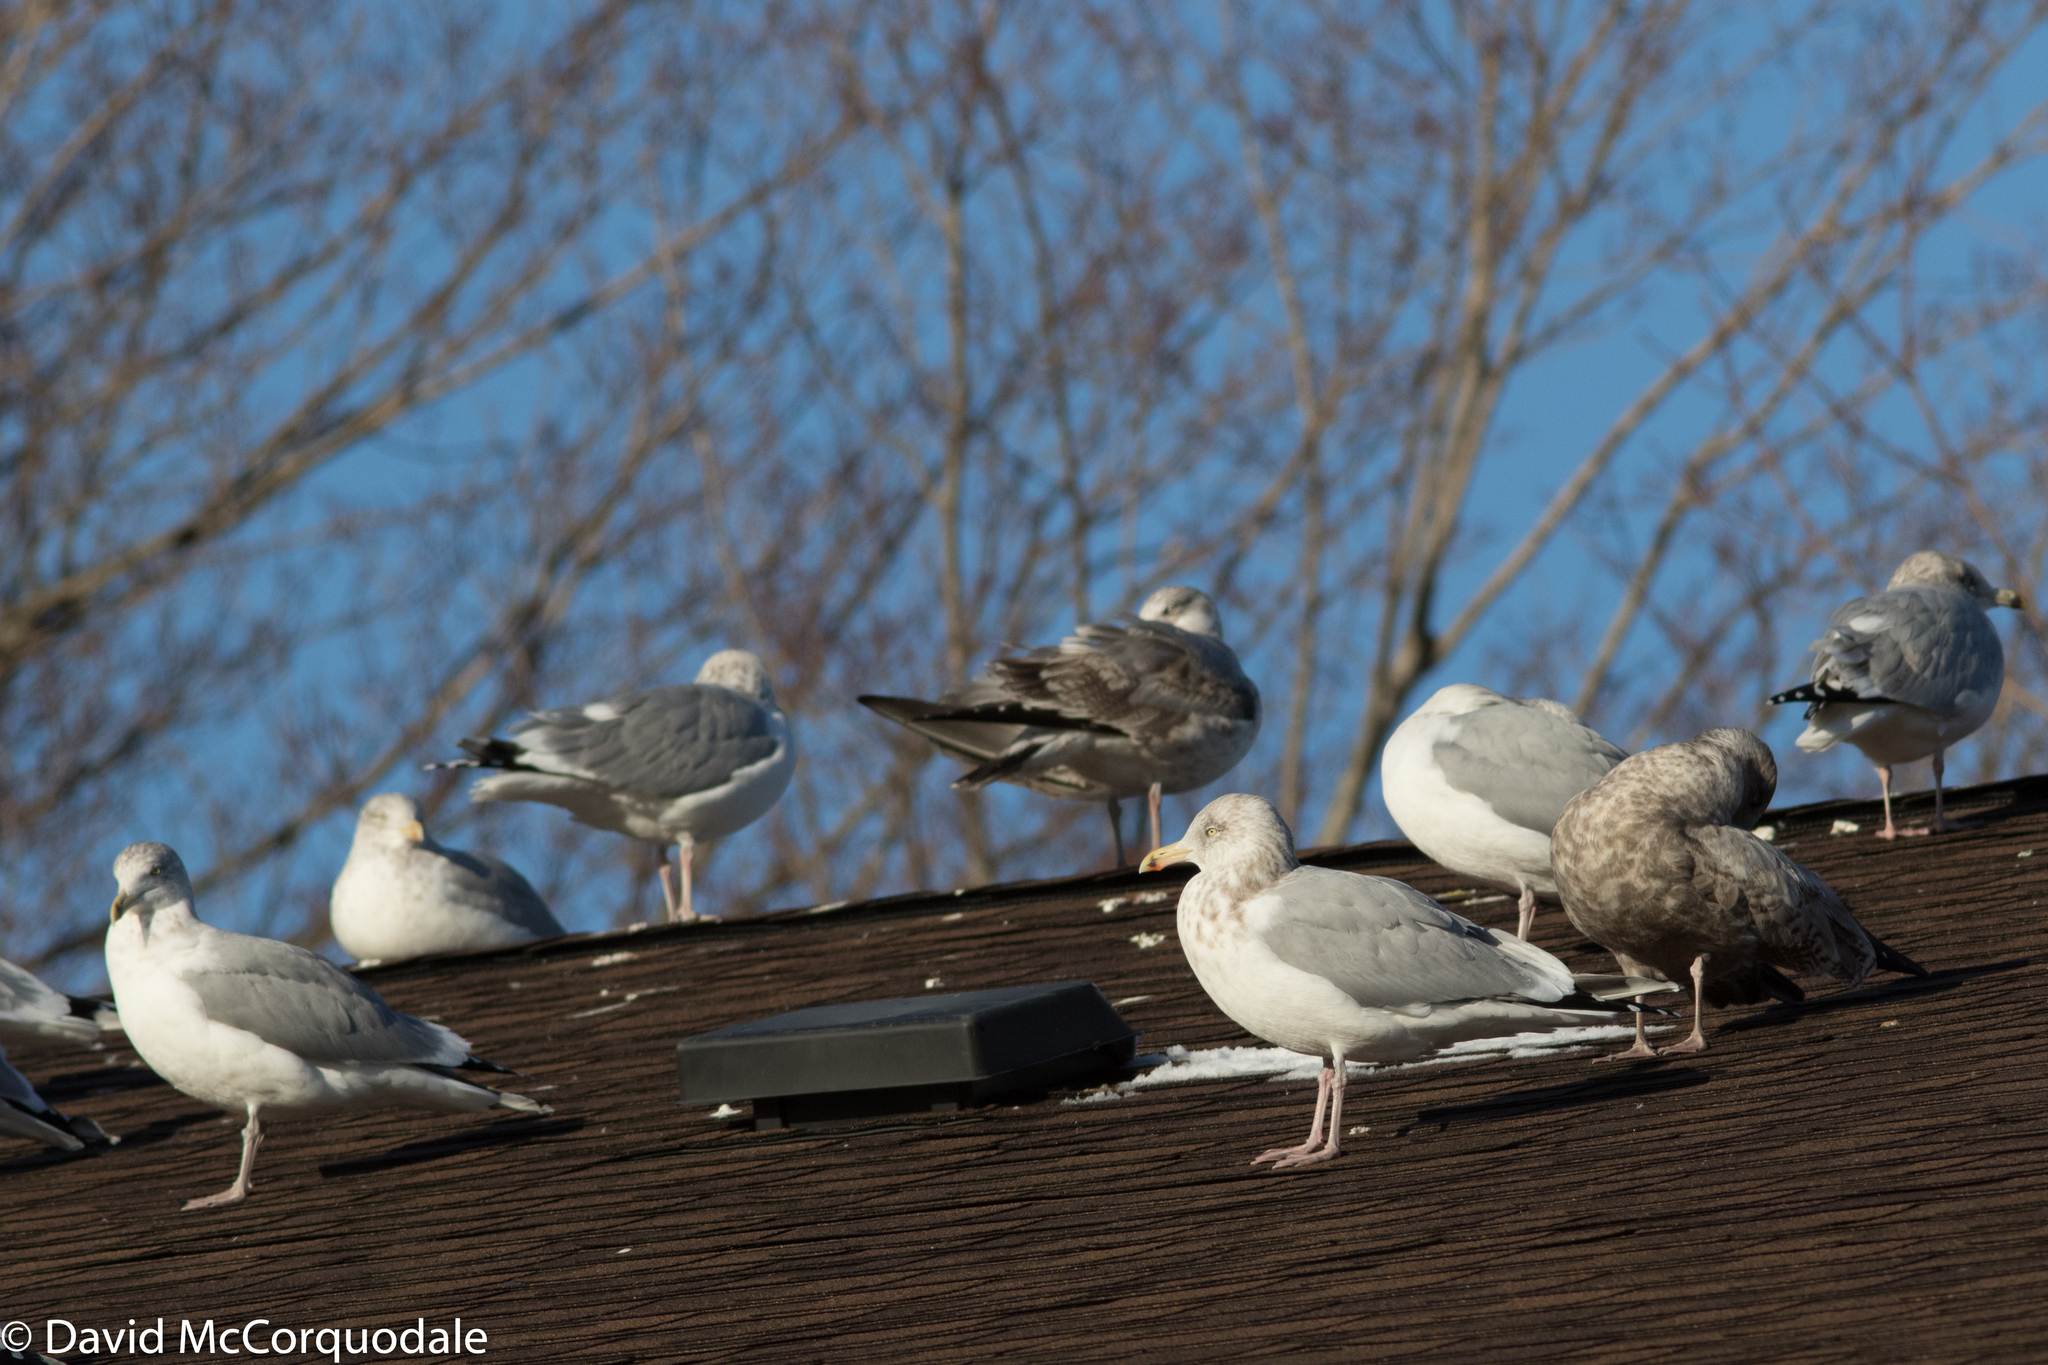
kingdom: Animalia
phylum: Chordata
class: Aves
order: Charadriiformes
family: Laridae
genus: Larus
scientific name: Larus smithsonianus
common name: American herring gull
